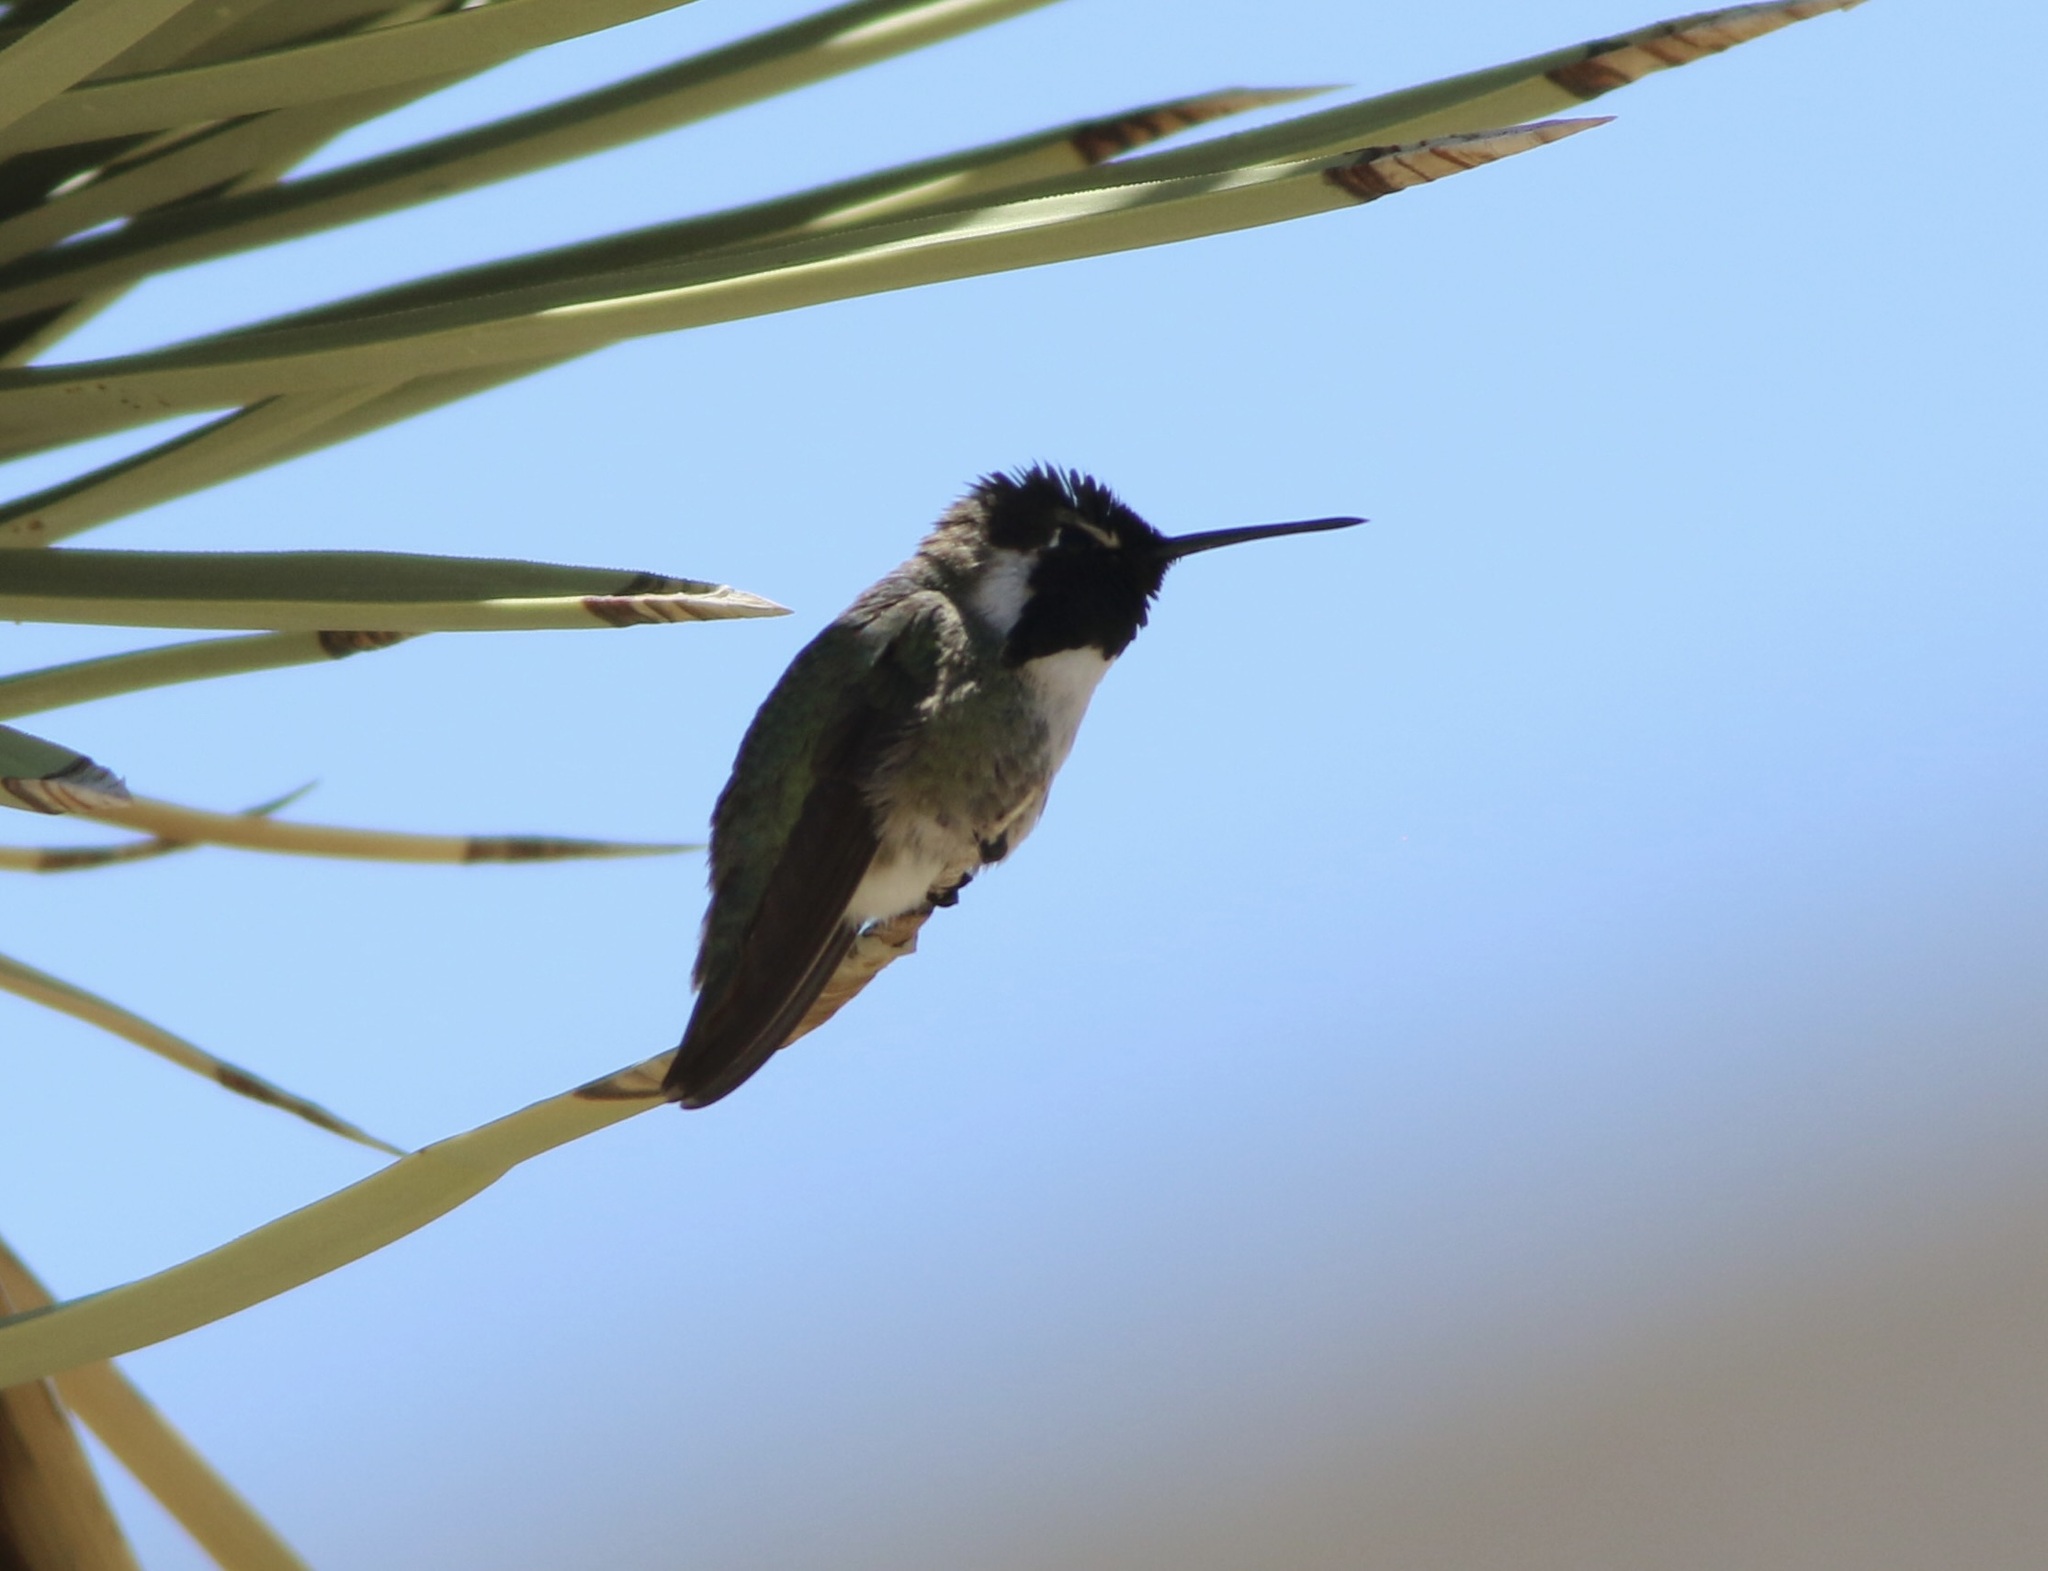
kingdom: Animalia
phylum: Chordata
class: Aves
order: Apodiformes
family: Trochilidae
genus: Calypte
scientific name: Calypte costae
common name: Costa's hummingbird
